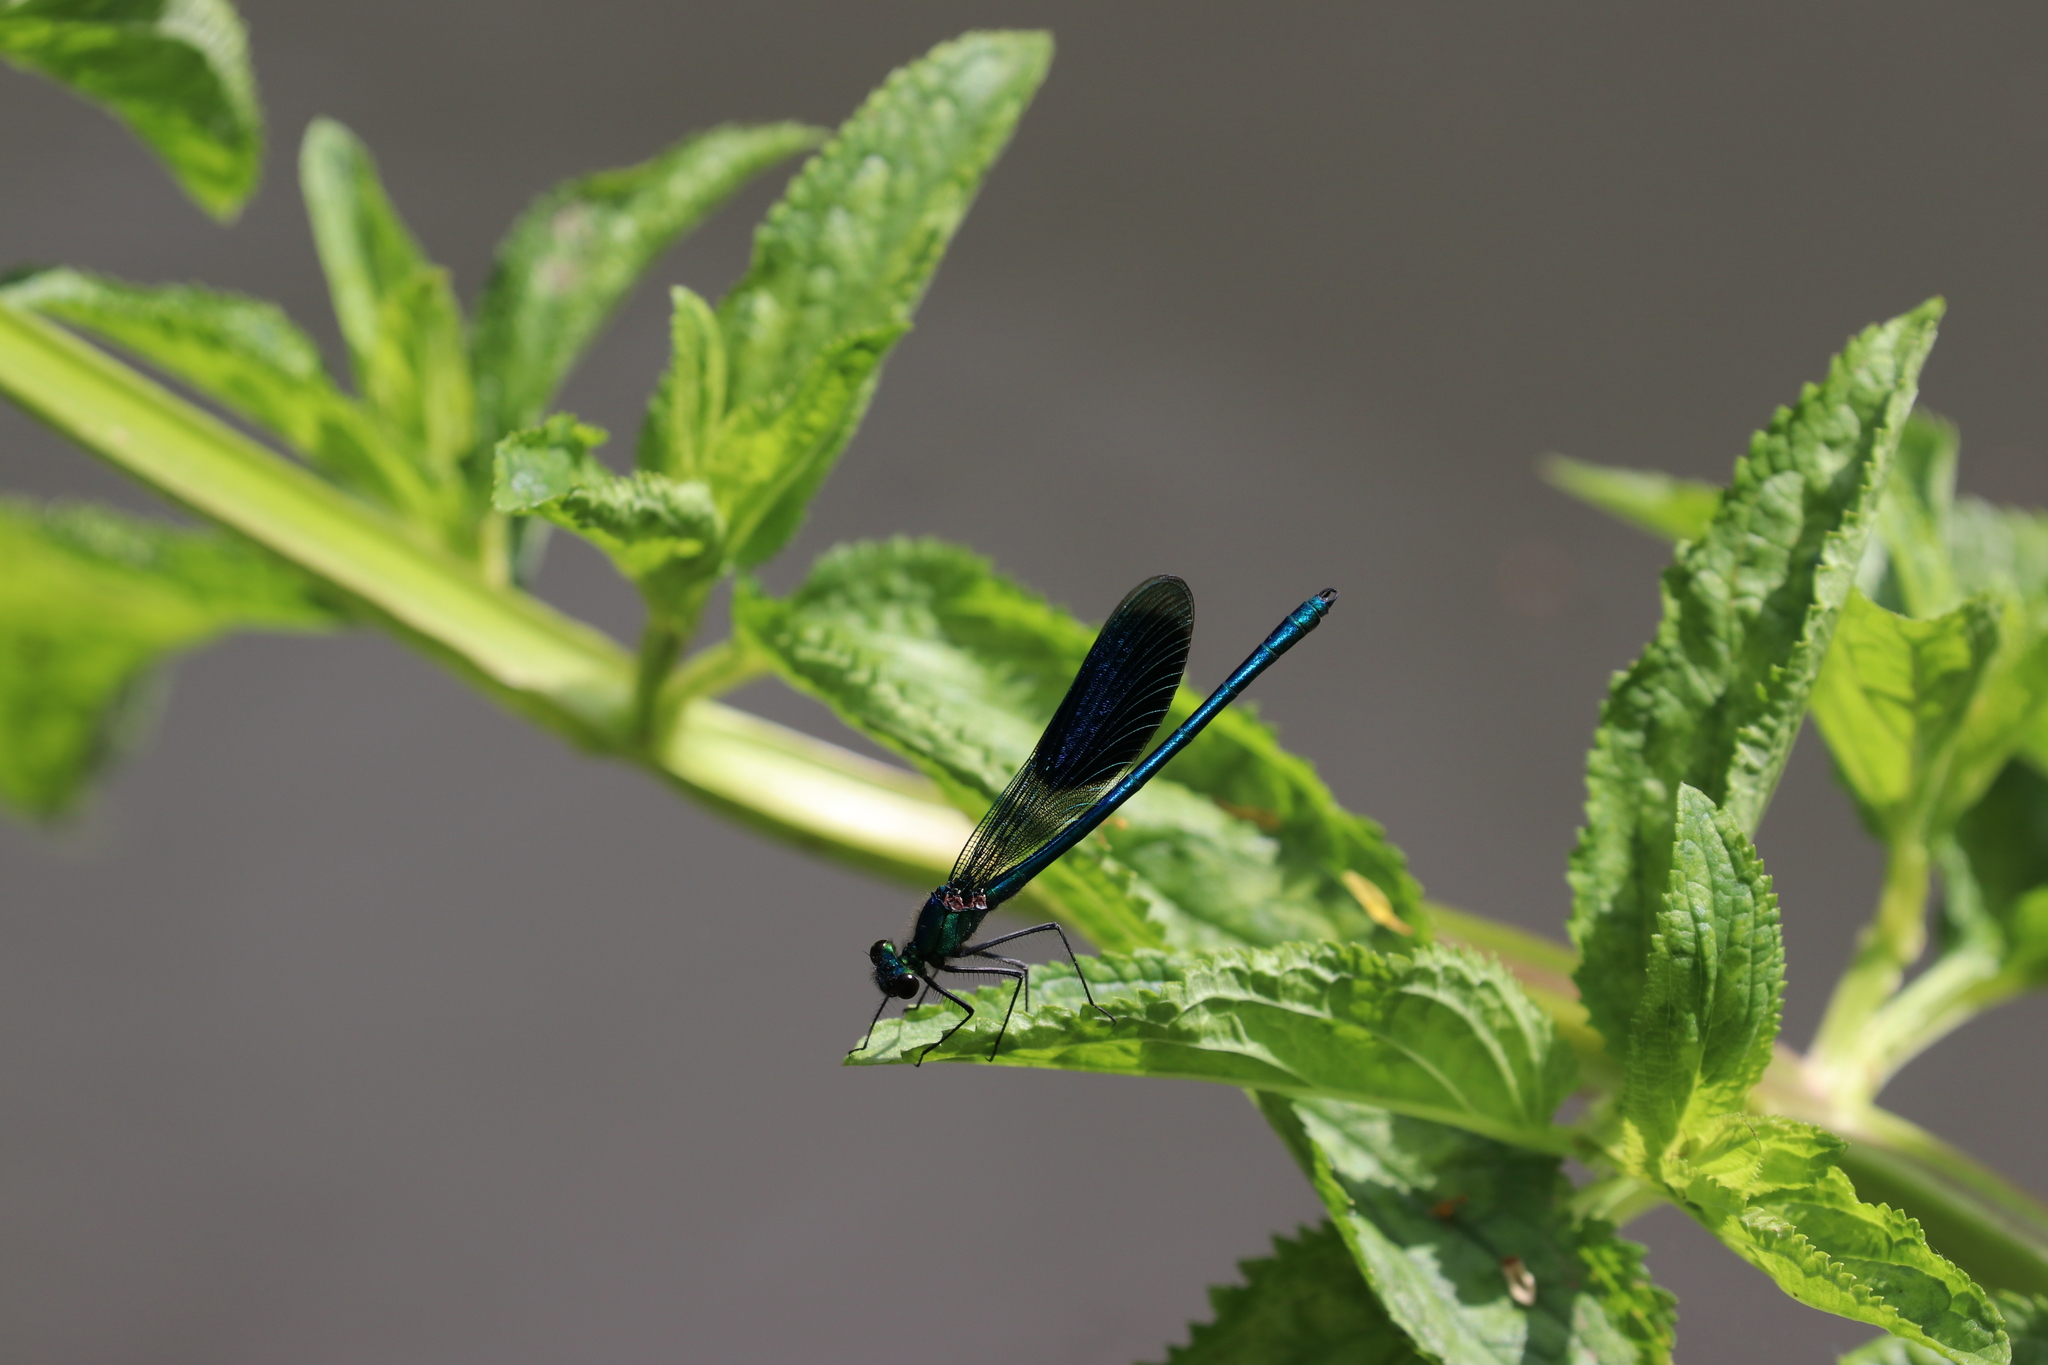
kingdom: Animalia
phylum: Arthropoda
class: Insecta
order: Odonata
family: Calopterygidae
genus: Calopteryx
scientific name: Calopteryx splendens
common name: Banded demoiselle
